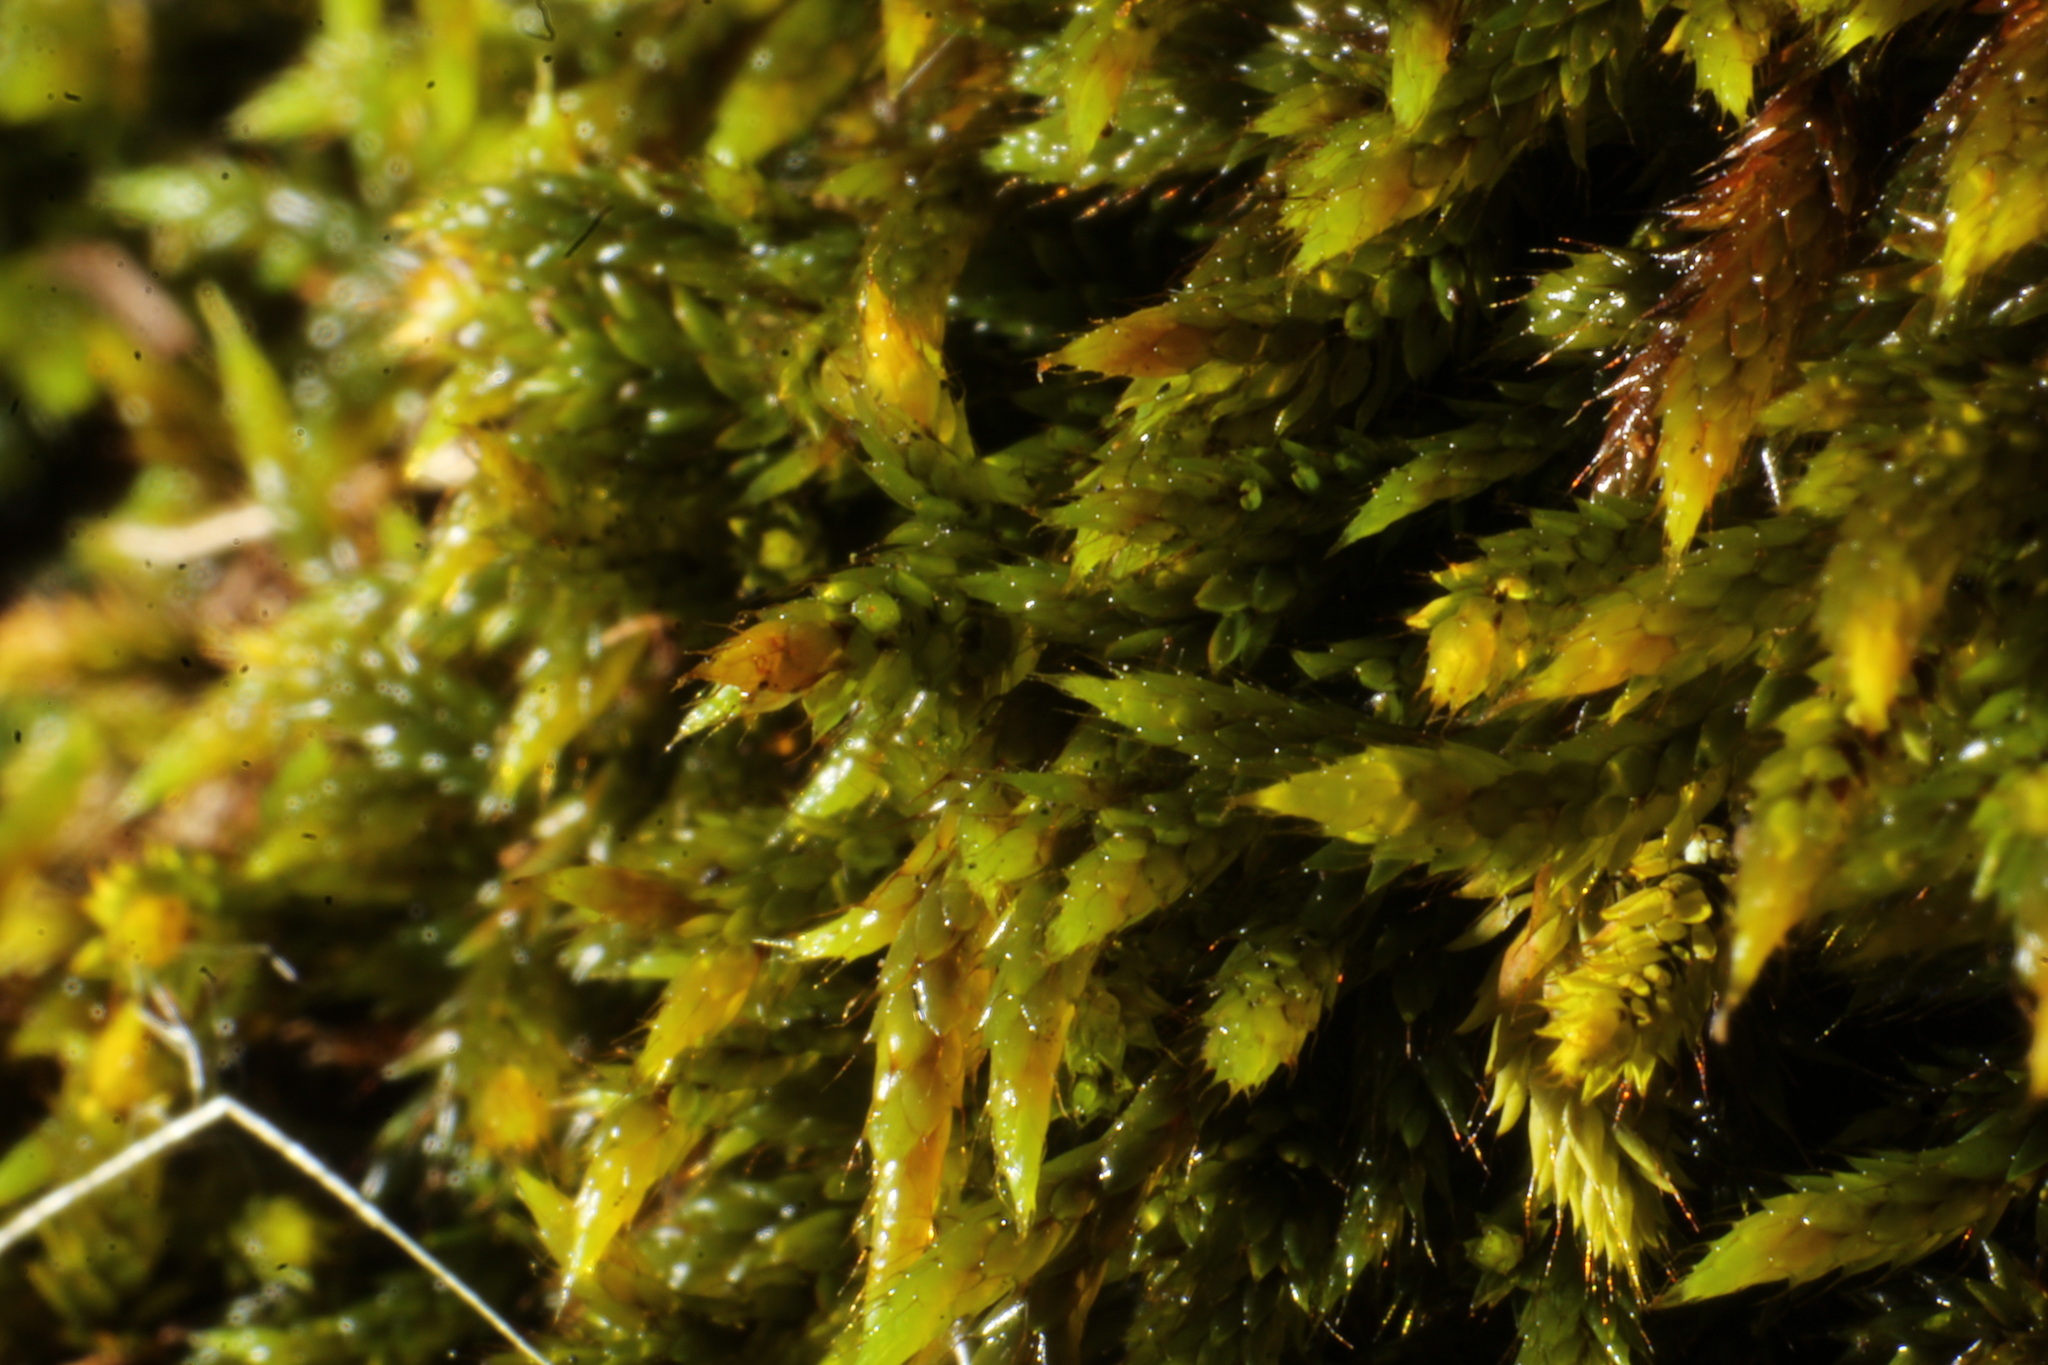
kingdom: Plantae
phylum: Bryophyta
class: Bryopsida
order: Hedwigiales
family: Hedwigiaceae
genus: Rhacocarpus
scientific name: Rhacocarpus purpurascens
